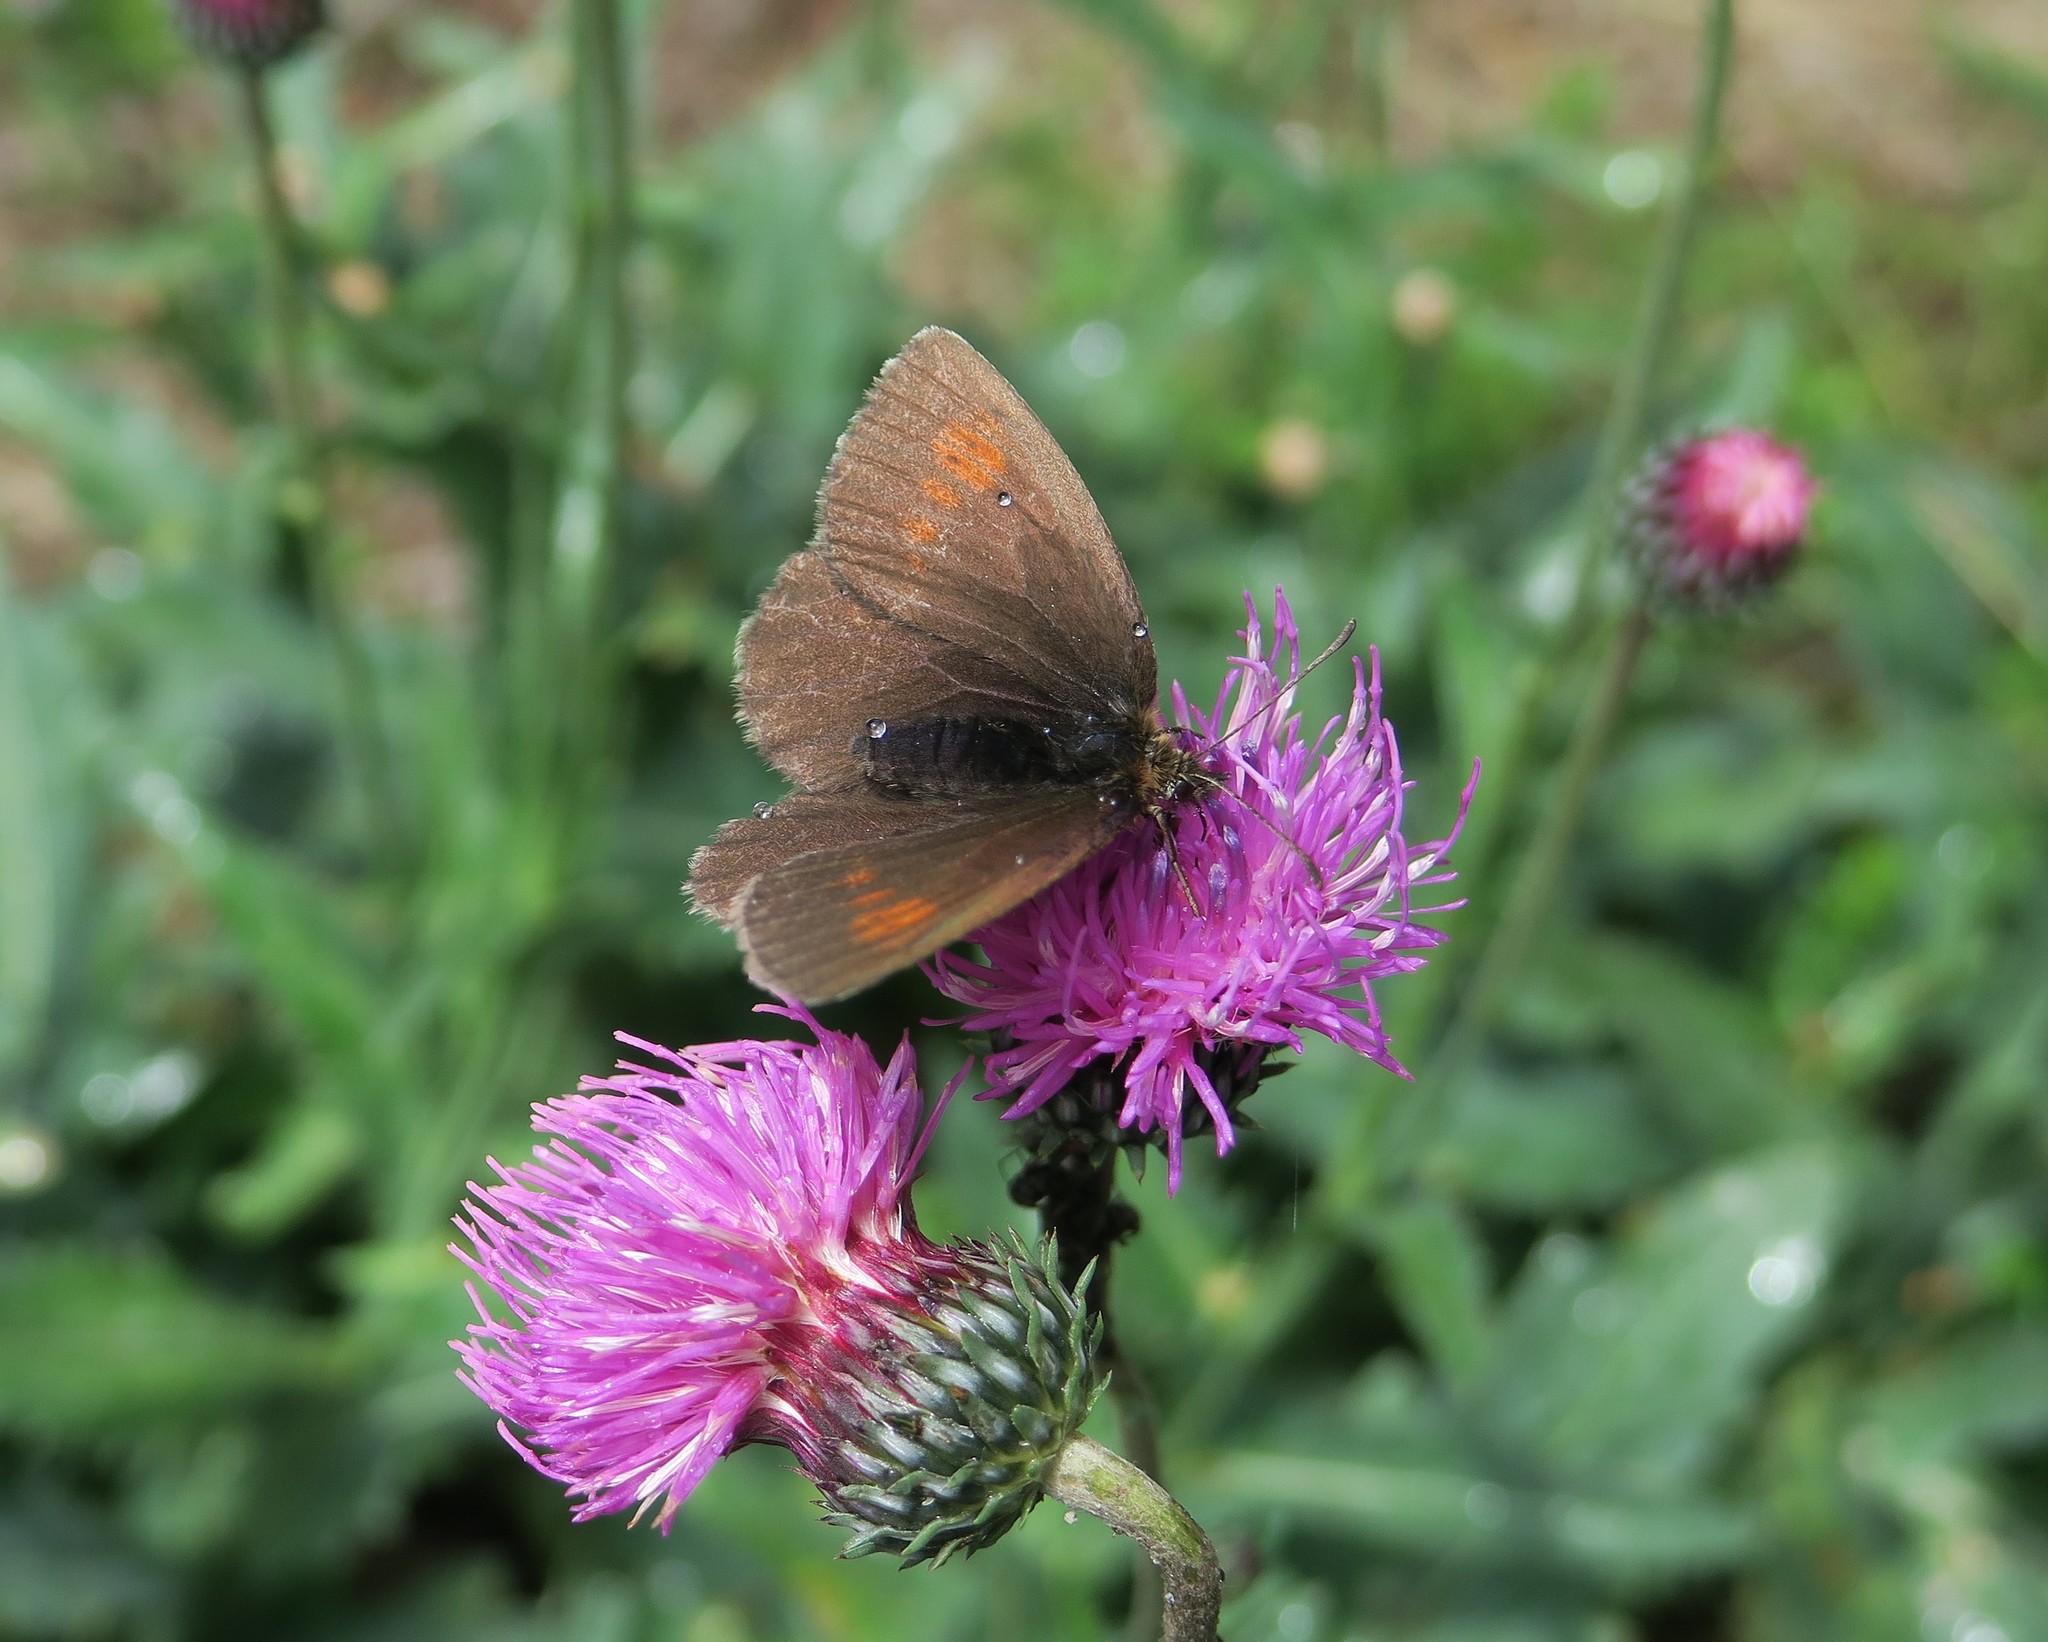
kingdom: Animalia
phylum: Arthropoda
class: Insecta
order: Lepidoptera
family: Nymphalidae
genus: Erebia
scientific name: Erebia manto
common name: Yellow-spotted ringlet
